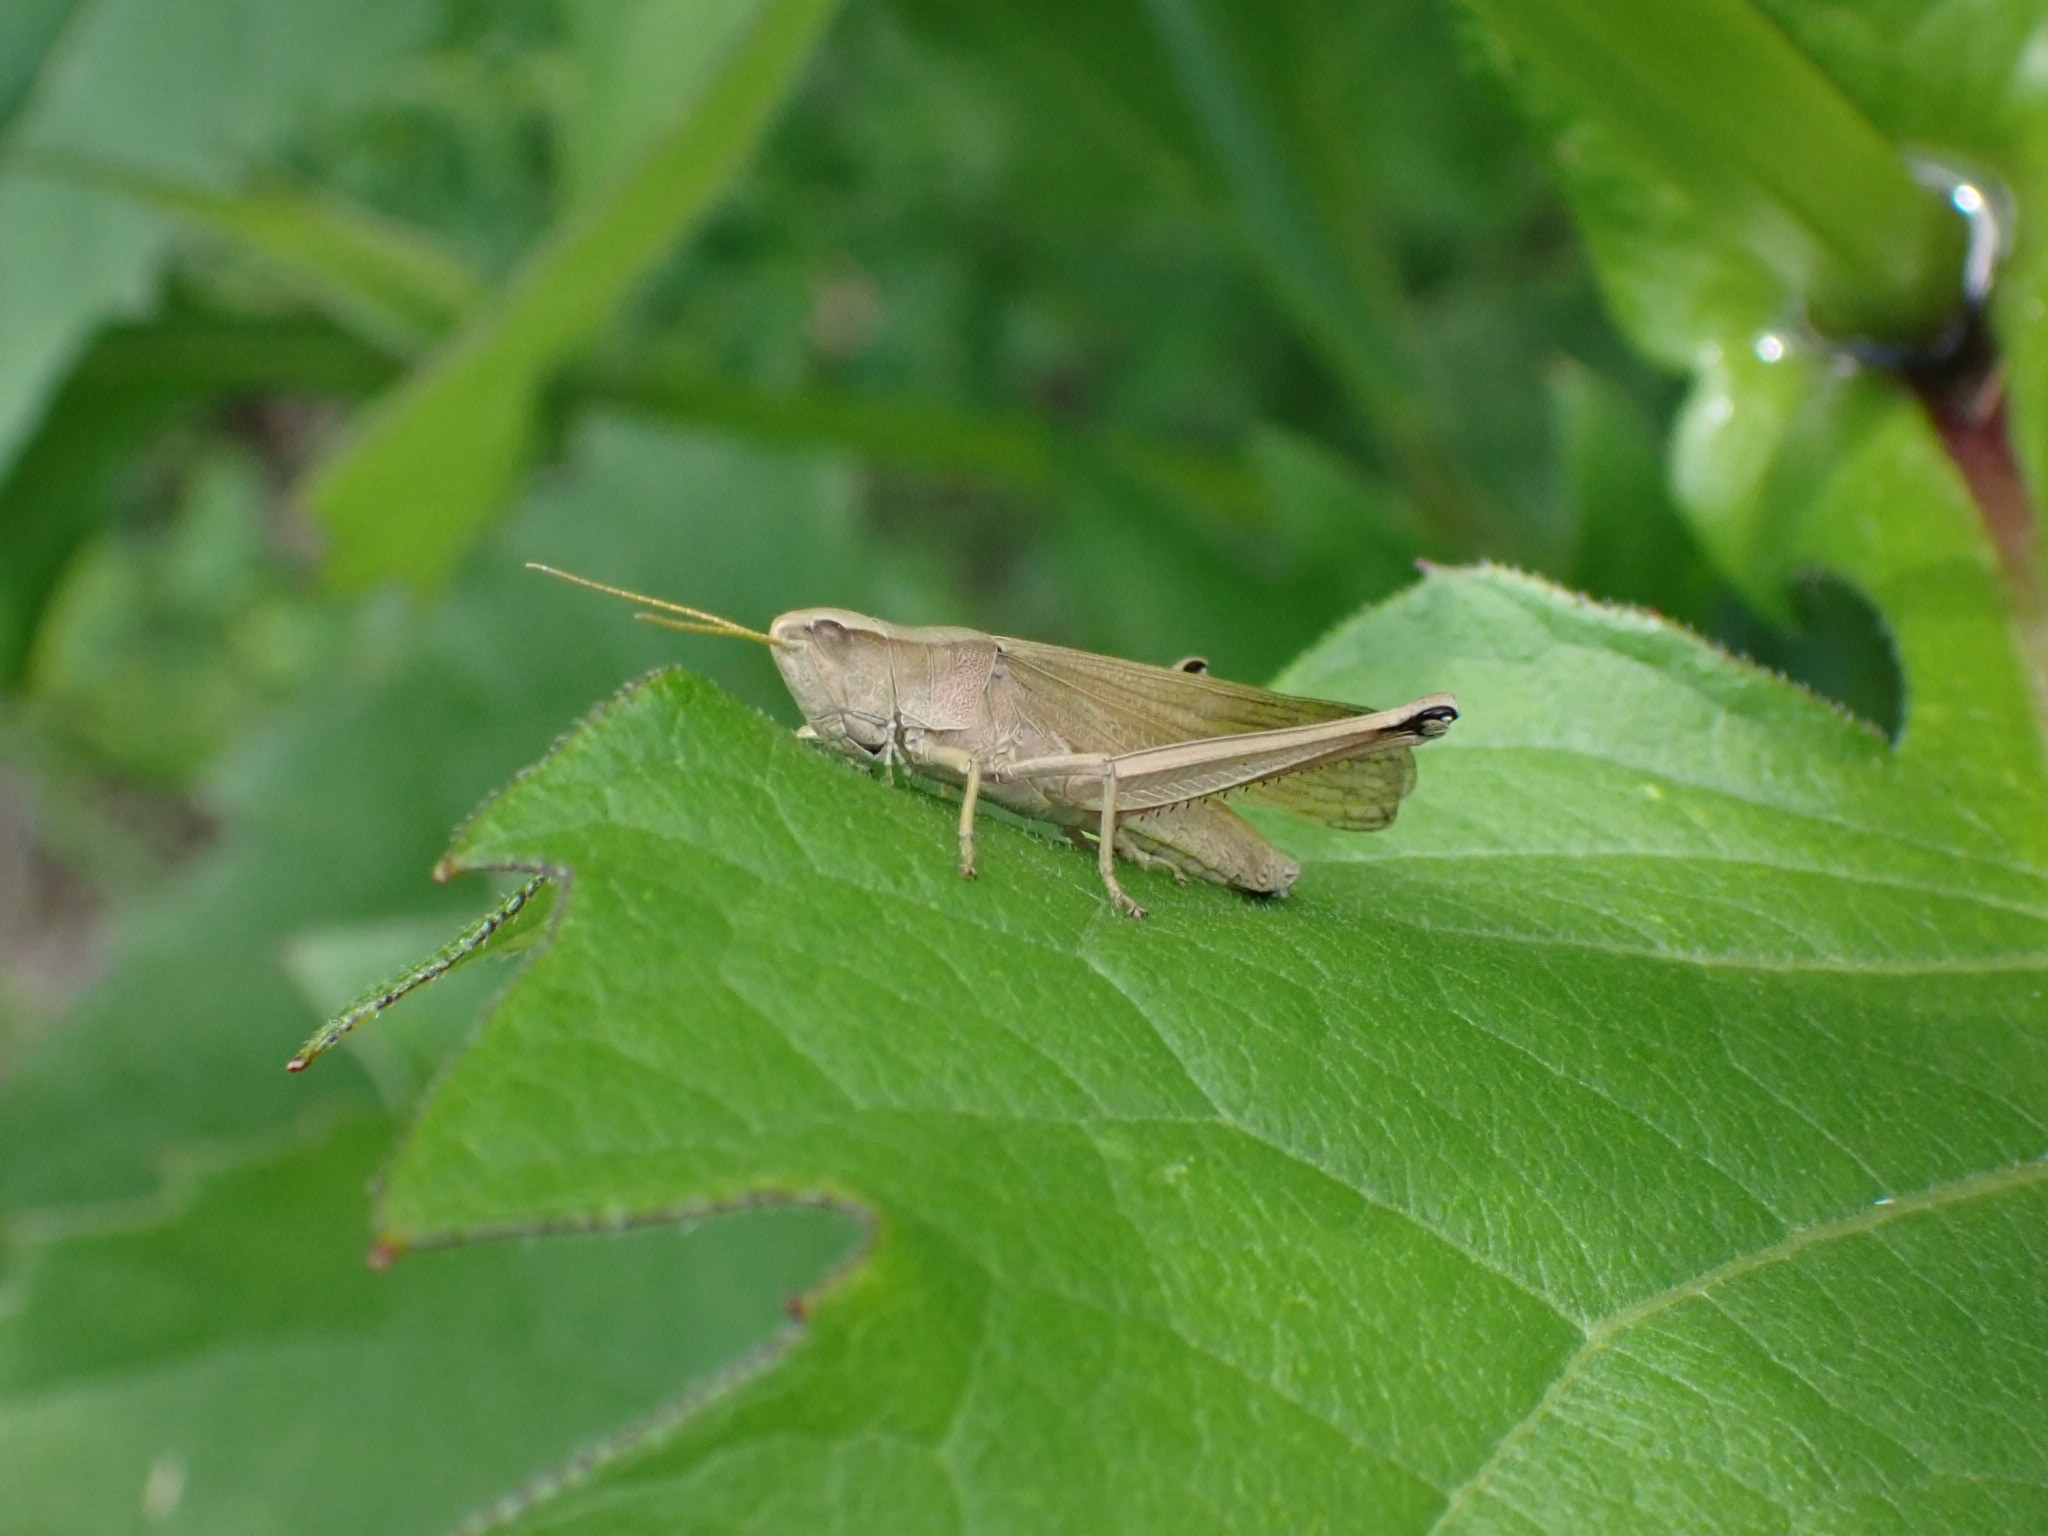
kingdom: Animalia
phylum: Arthropoda
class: Insecta
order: Orthoptera
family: Acrididae
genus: Chrysochraon
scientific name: Chrysochraon dispar
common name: Large gold grasshopper
